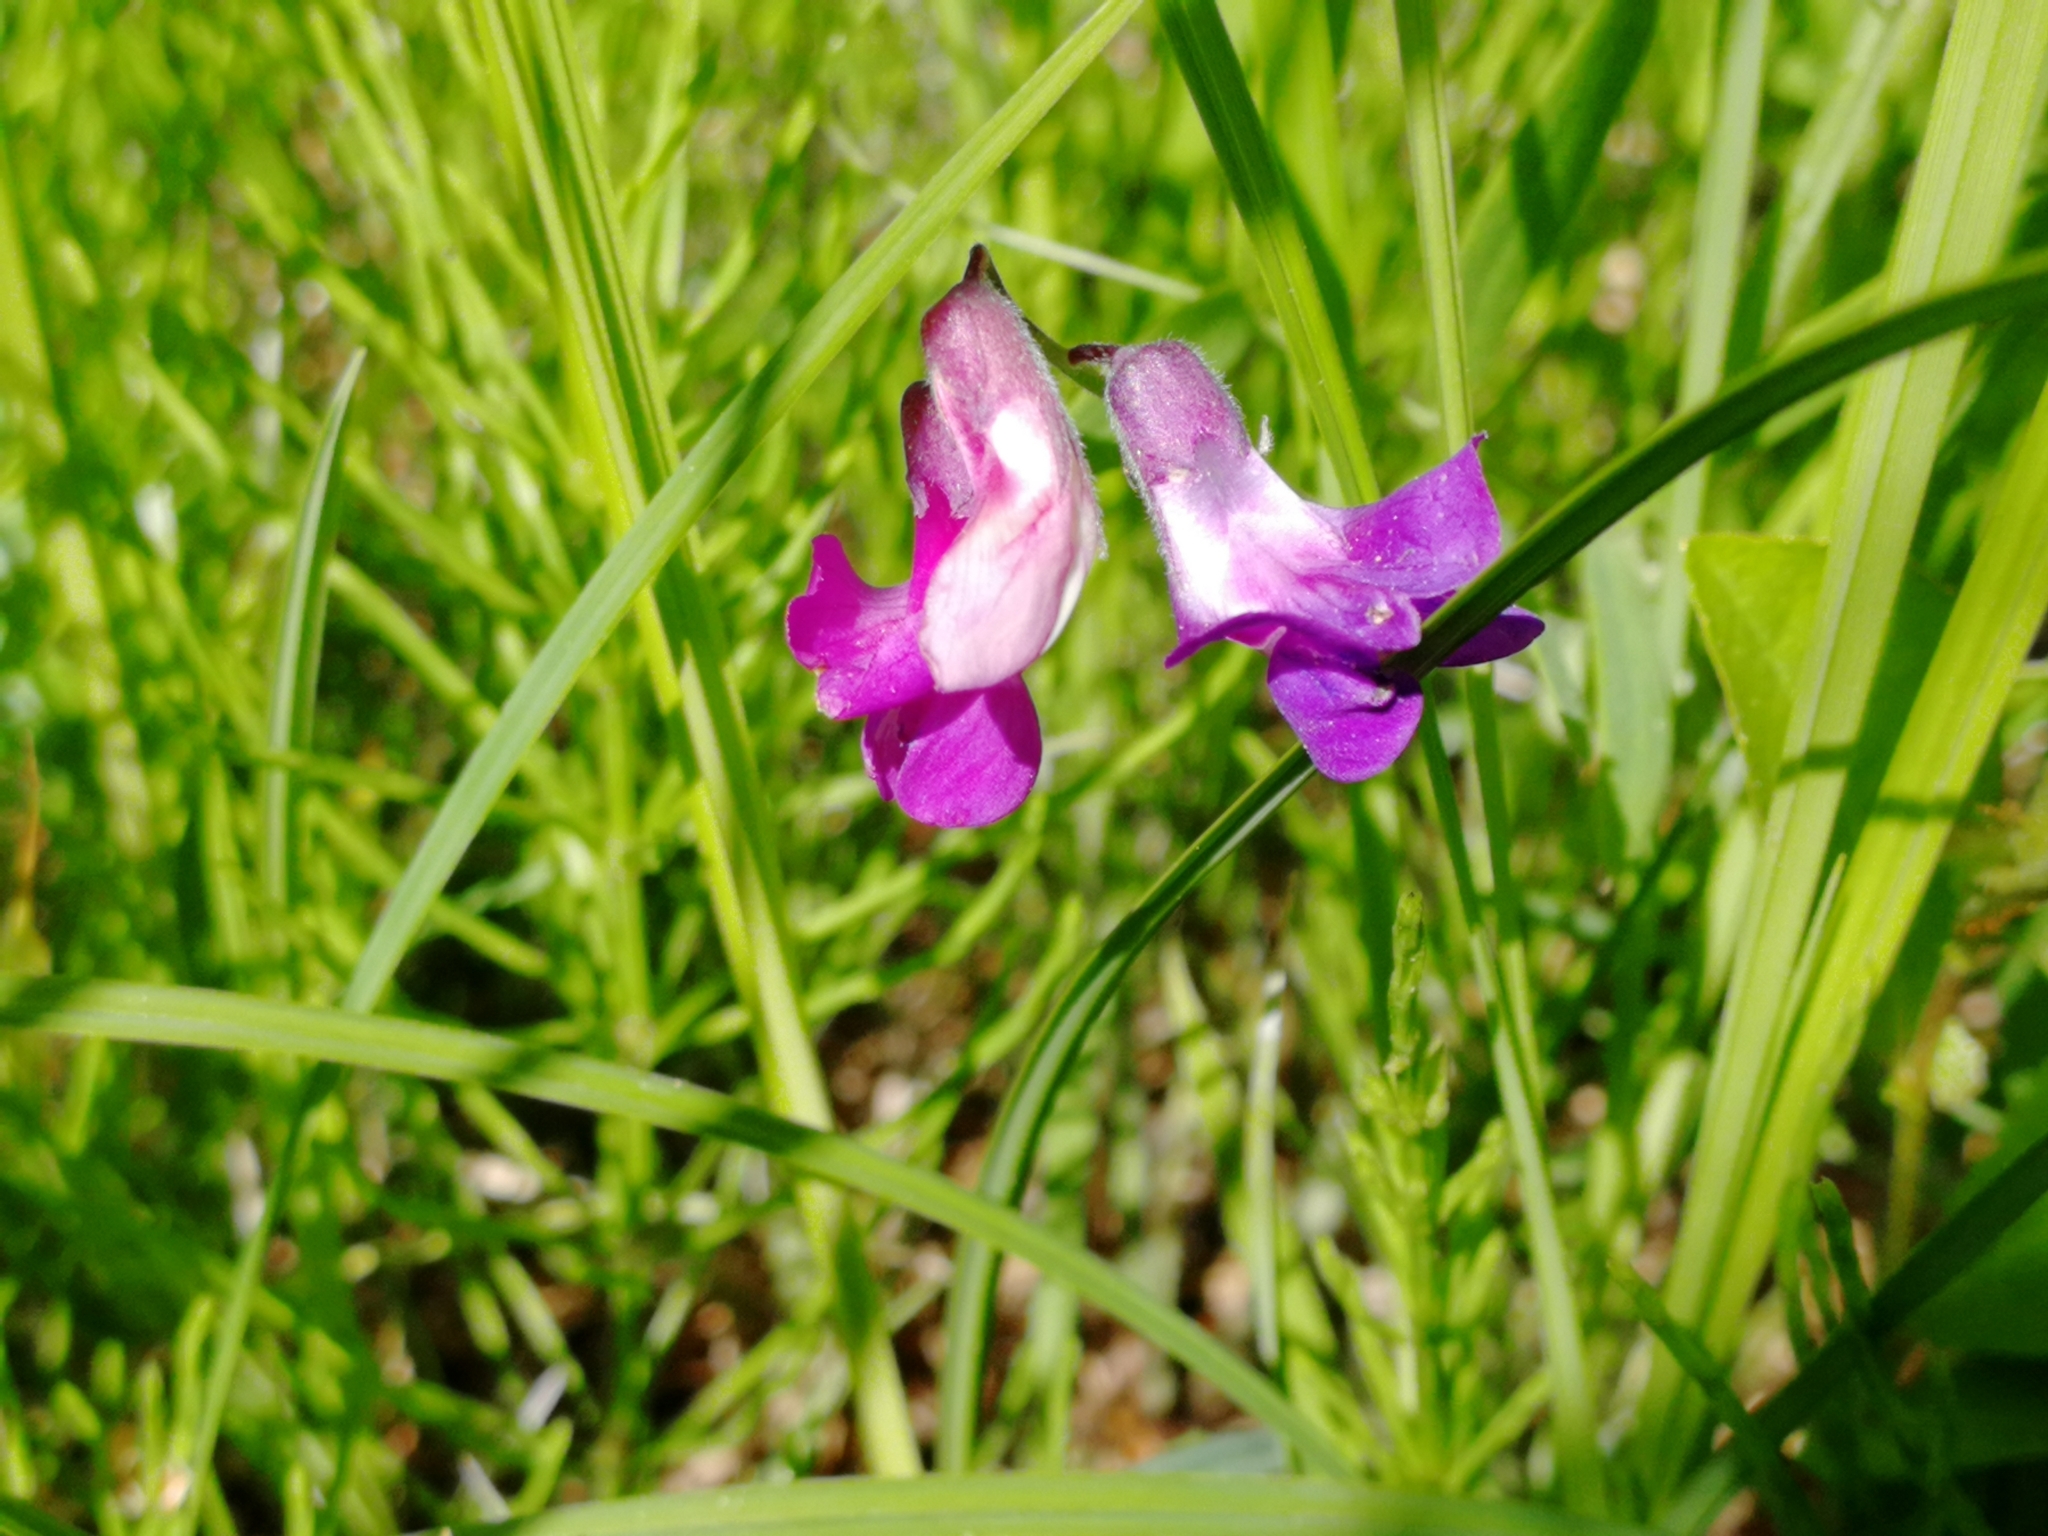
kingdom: Plantae
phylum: Tracheophyta
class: Magnoliopsida
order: Fabales
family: Fabaceae
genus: Lathyrus
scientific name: Lathyrus palustris
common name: Marsh pea
